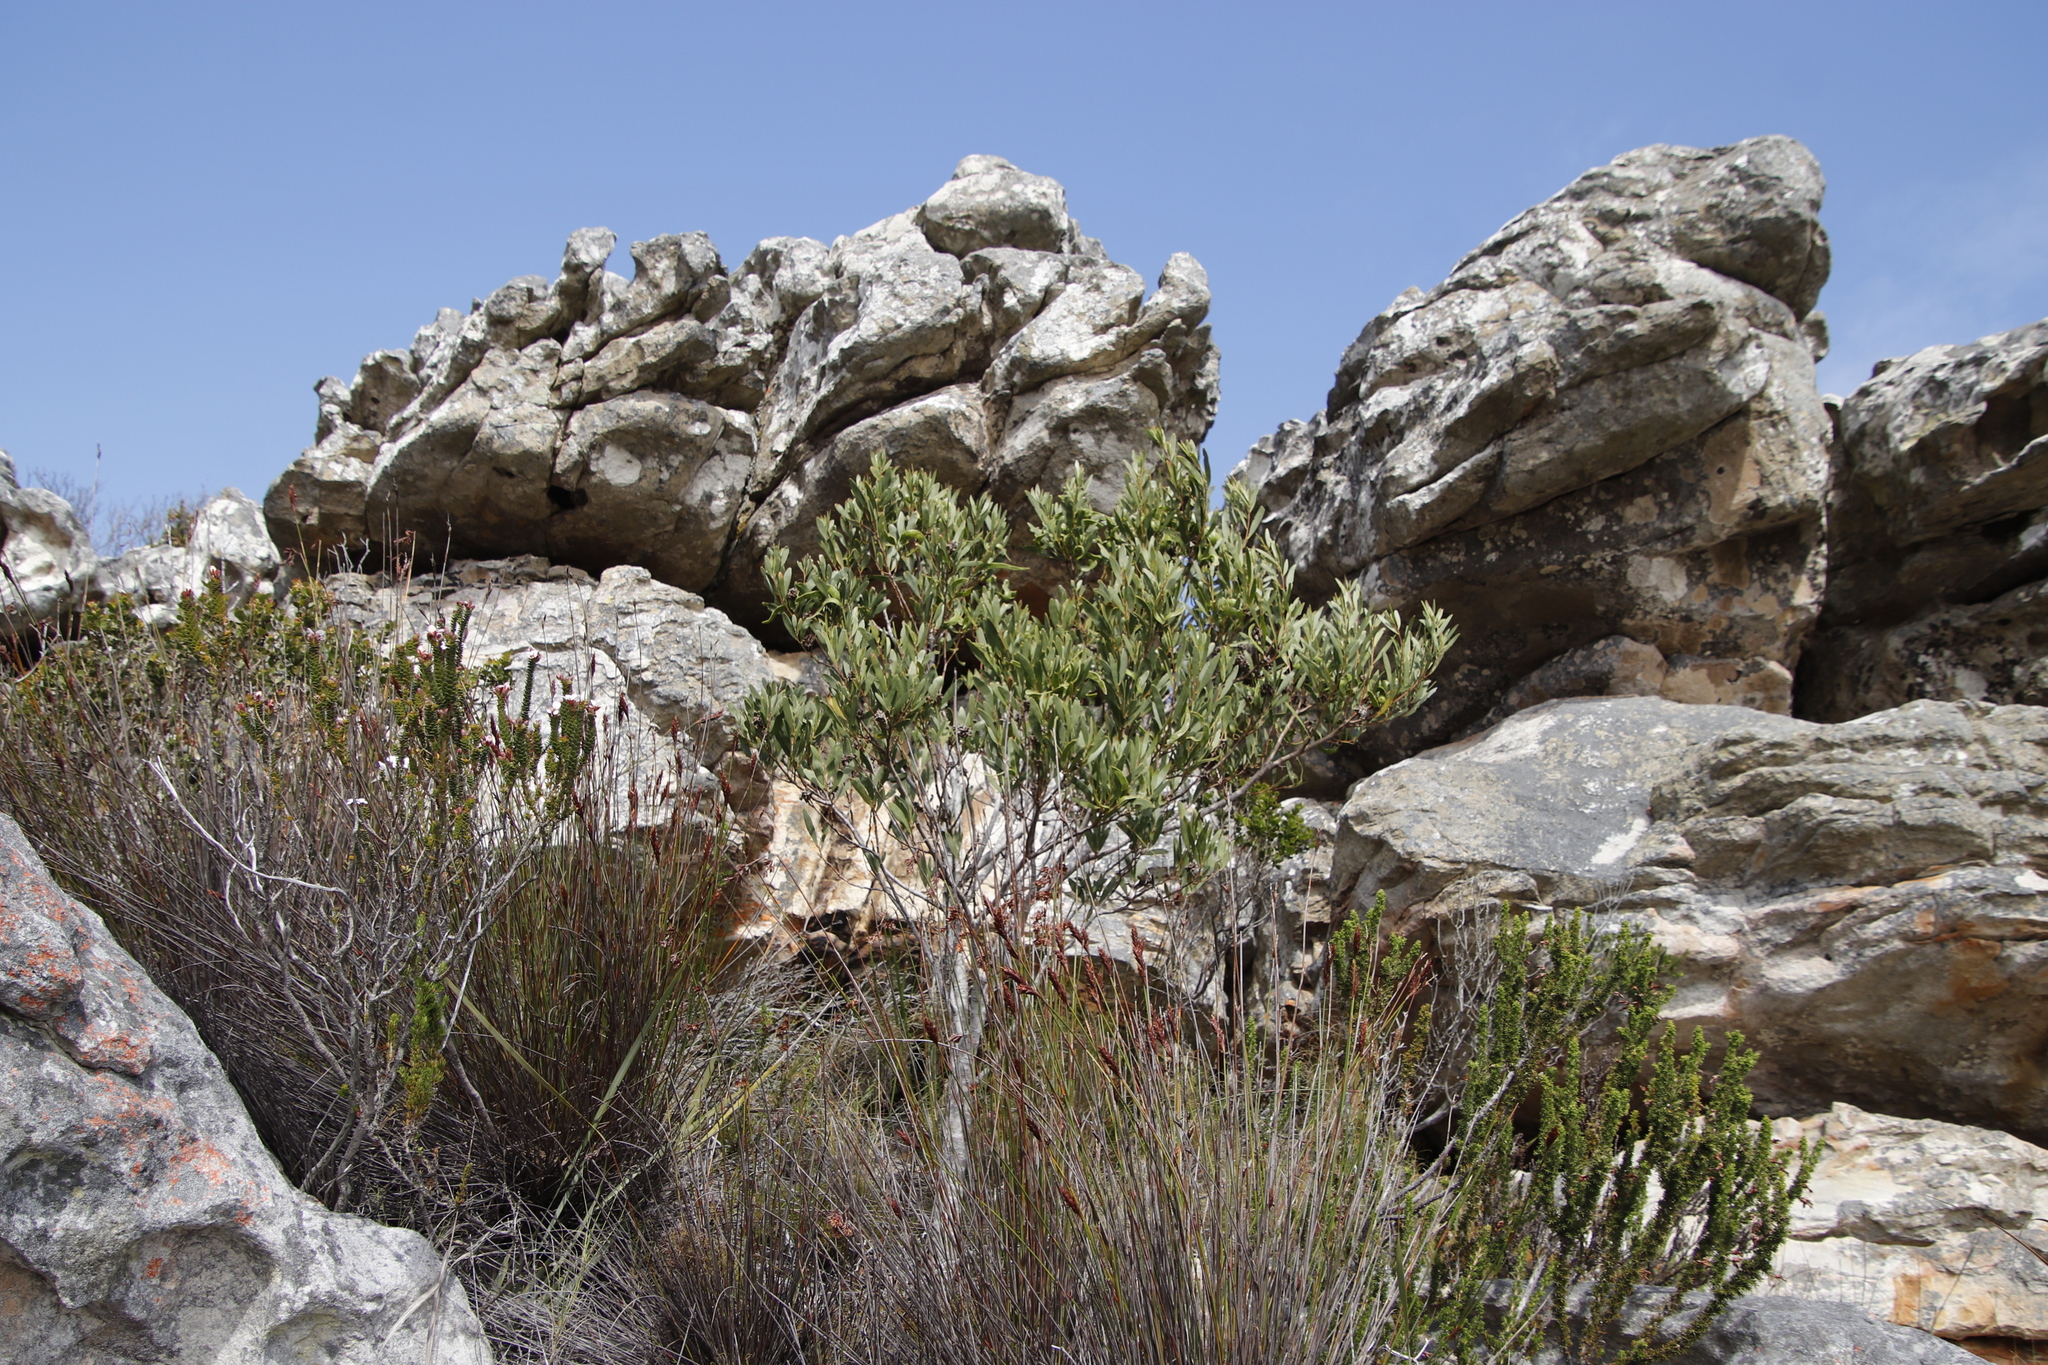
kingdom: Plantae
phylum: Tracheophyta
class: Magnoliopsida
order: Fabales
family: Fabaceae
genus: Acacia
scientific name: Acacia cyclops
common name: Coastal wattle
